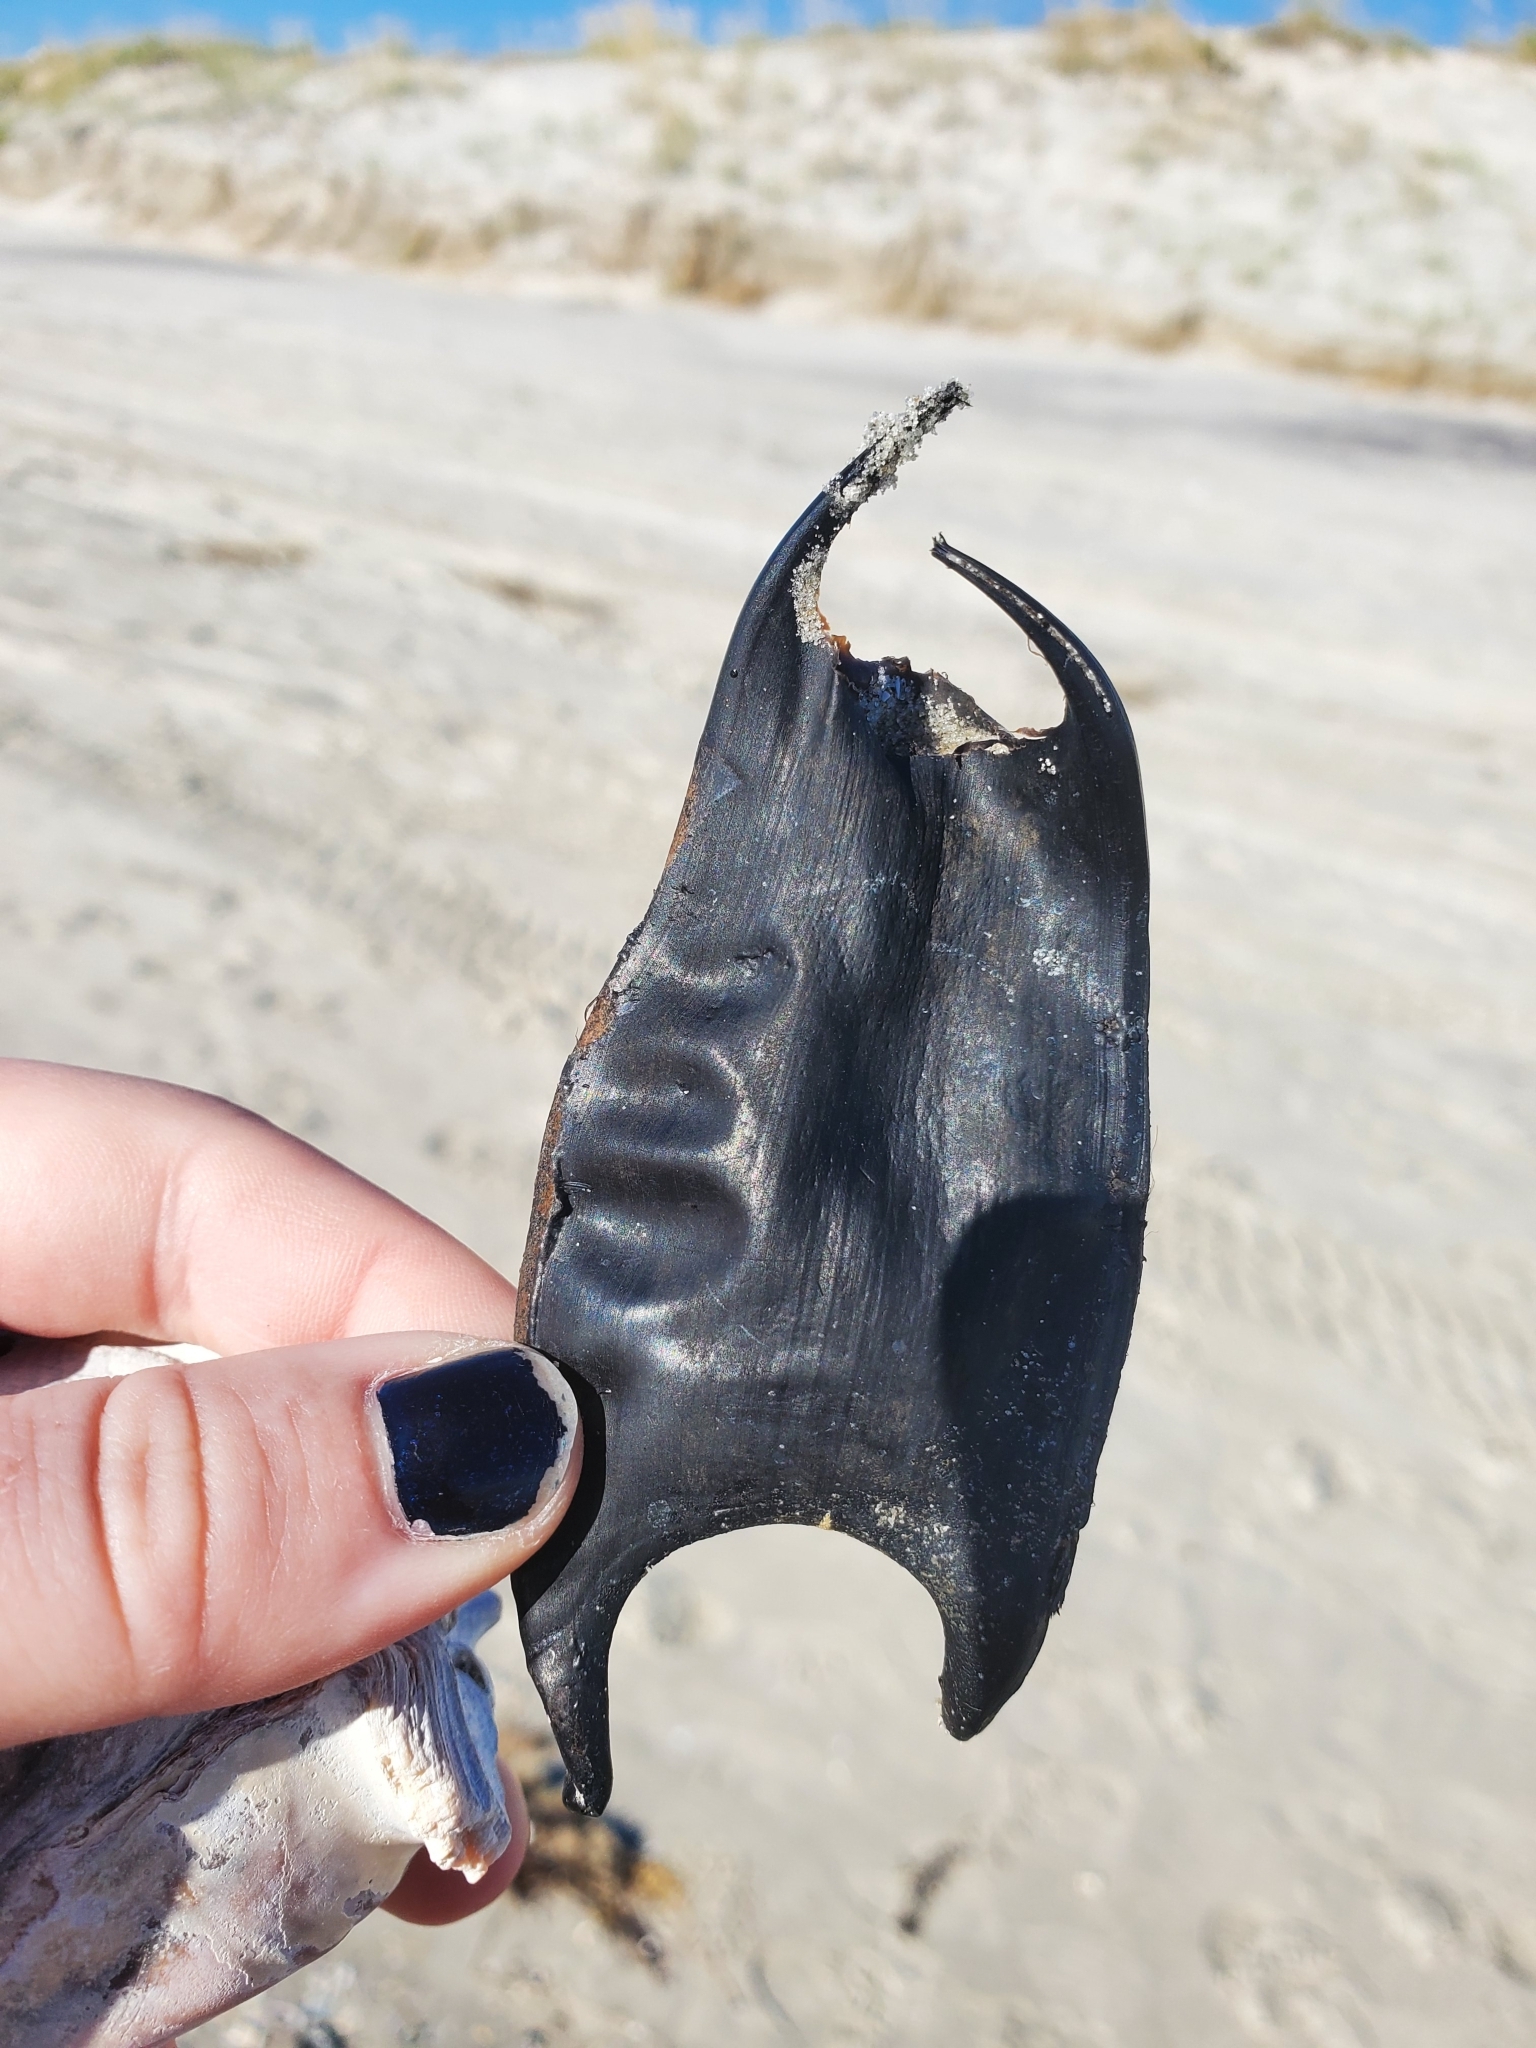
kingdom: Animalia
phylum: Chordata
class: Elasmobranchii
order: Rajiformes
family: Rajidae
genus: Raja
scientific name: Raja eglanteria
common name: Clearnose skate
